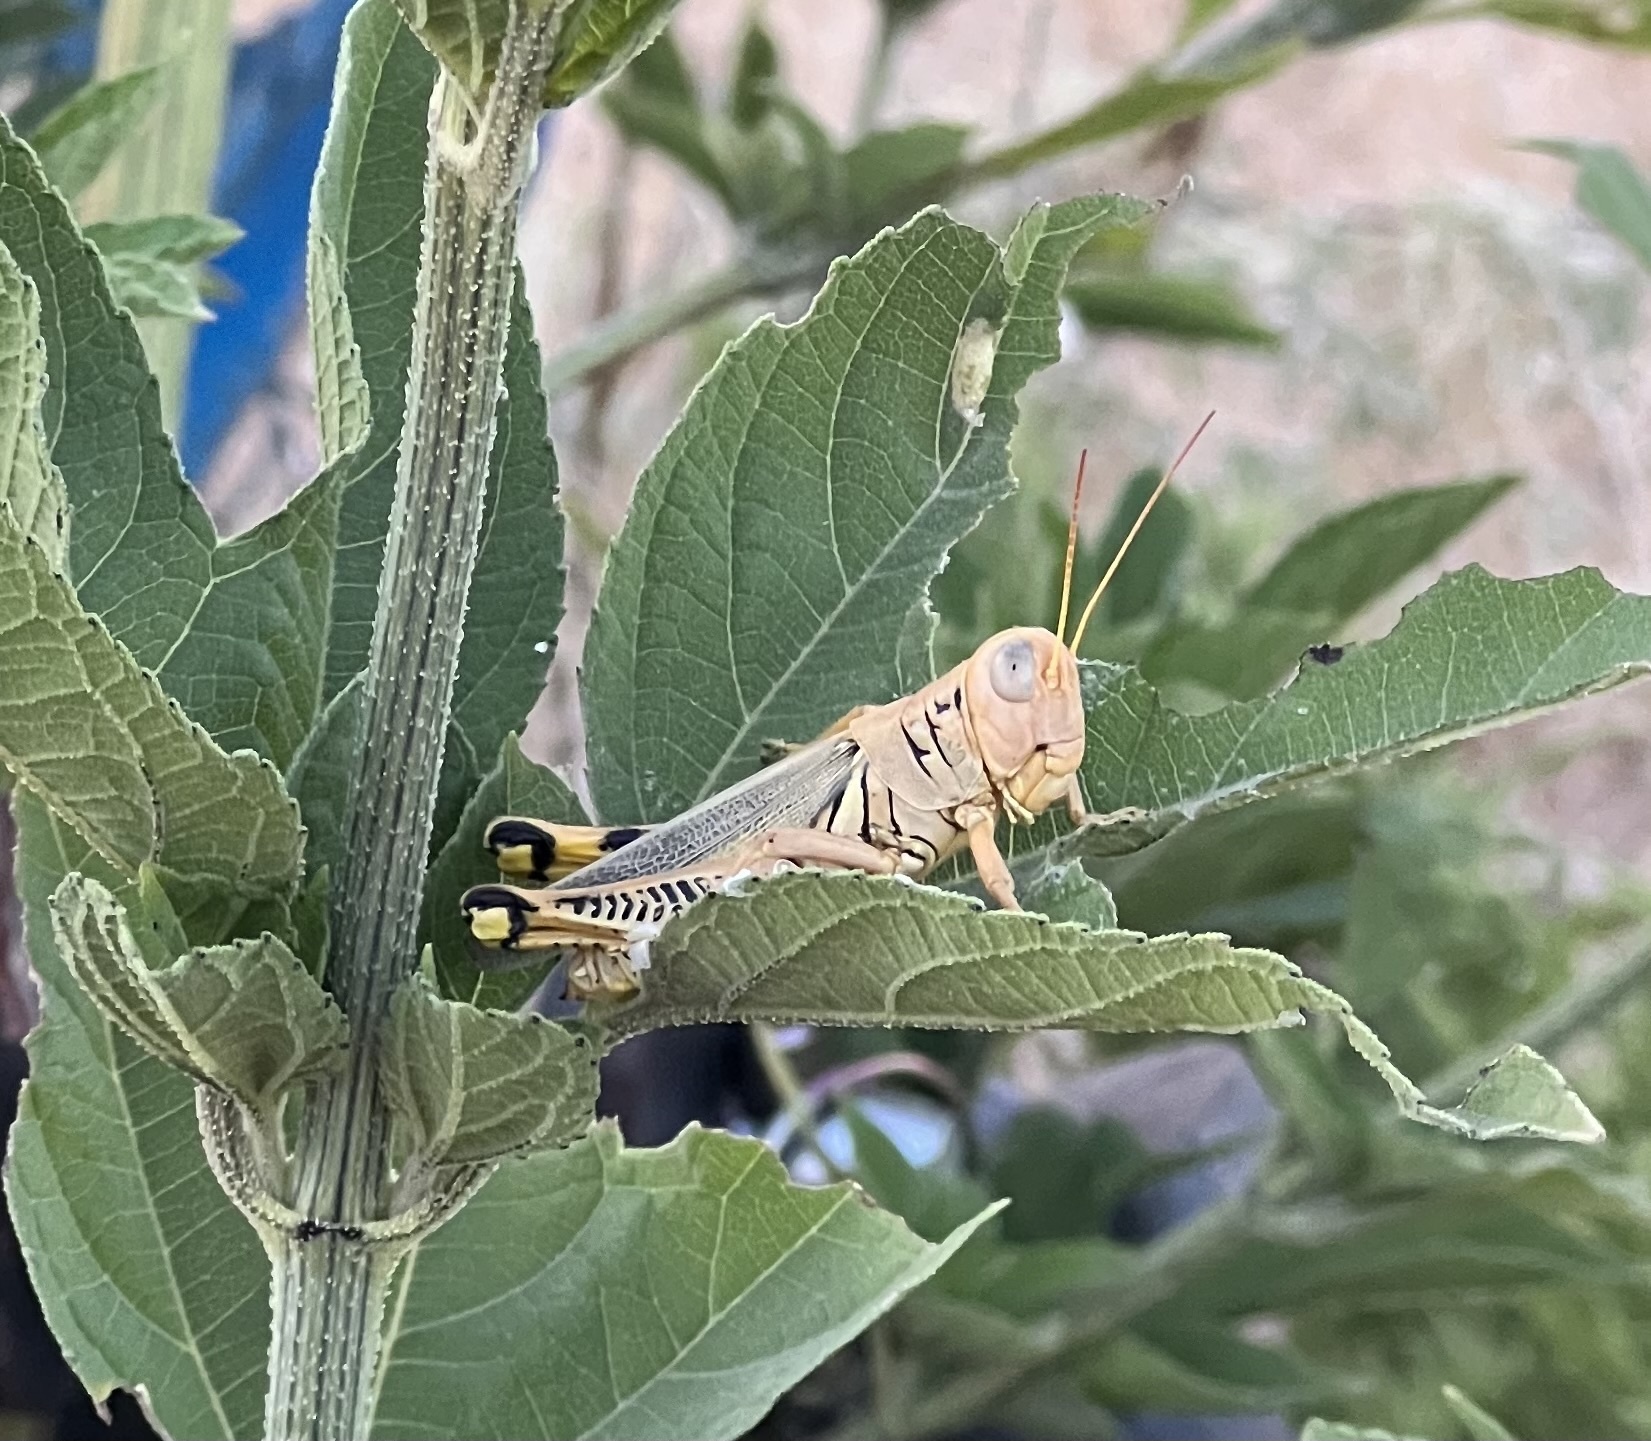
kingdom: Animalia
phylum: Arthropoda
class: Insecta
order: Orthoptera
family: Acrididae
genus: Melanoplus
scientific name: Melanoplus differentialis
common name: Differential grasshopper
